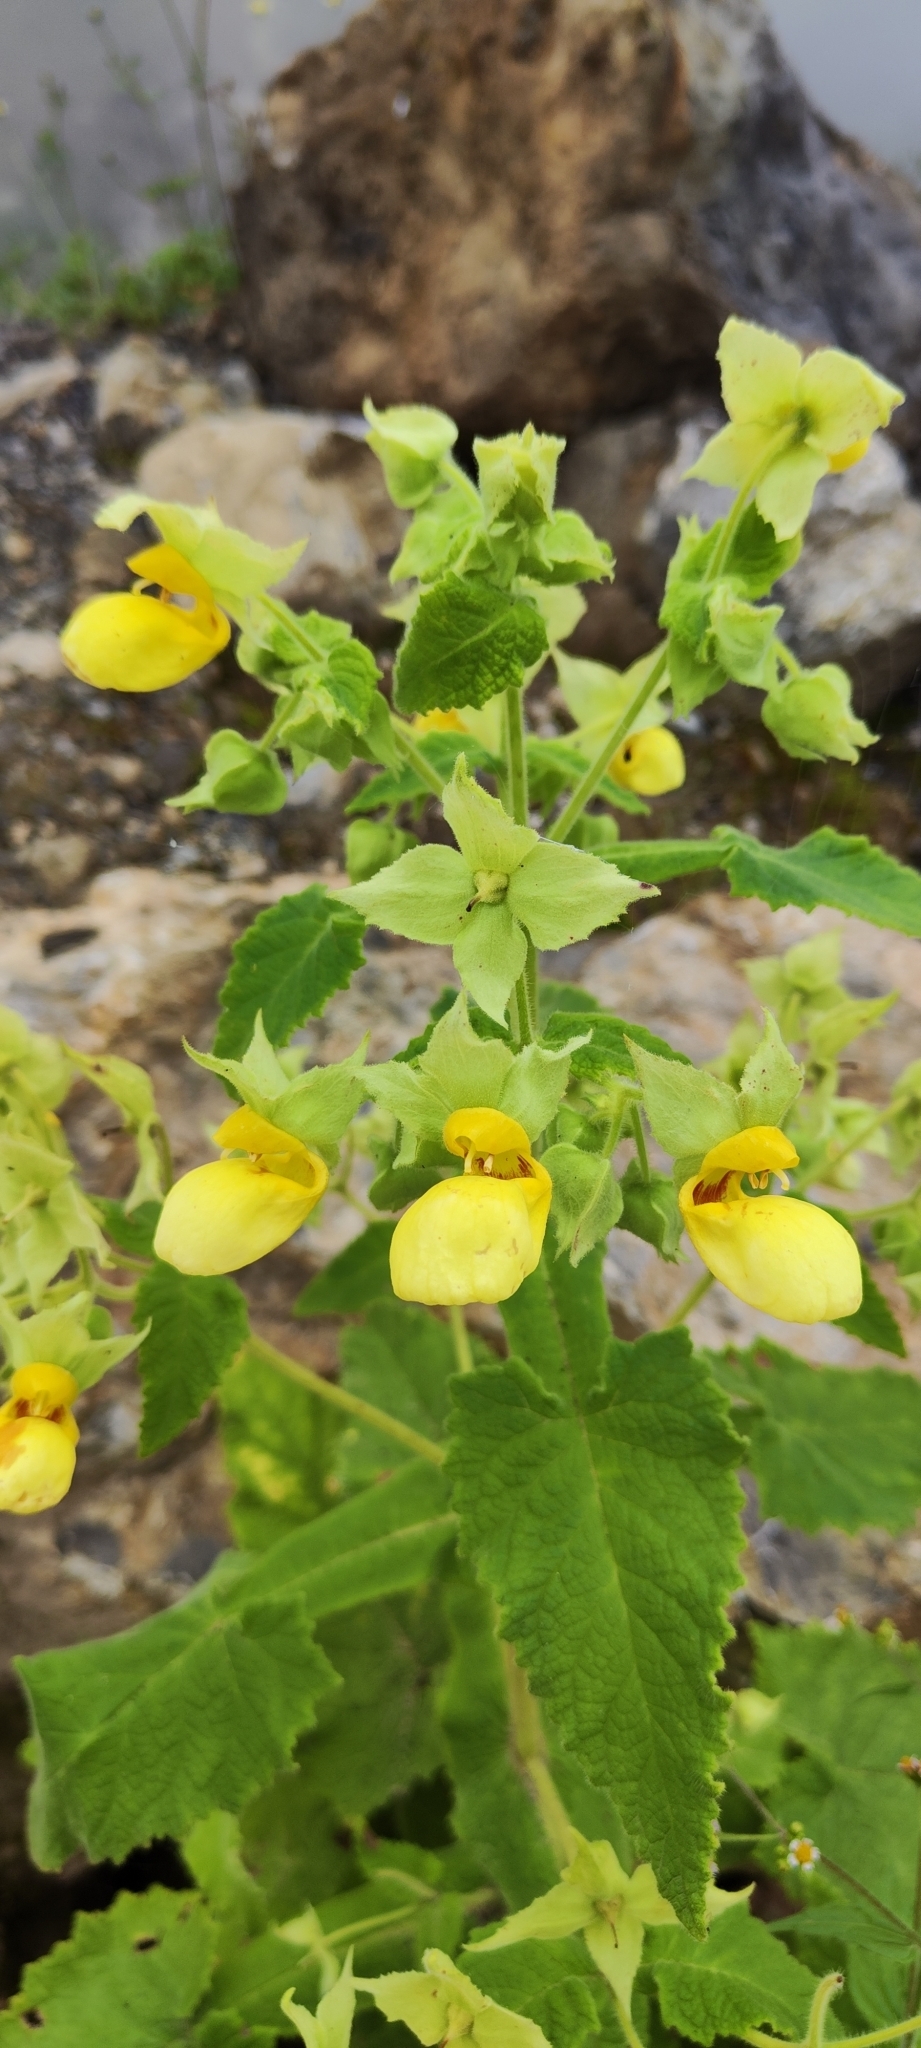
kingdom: Plantae
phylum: Tracheophyta
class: Magnoliopsida
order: Lamiales
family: Calceolariaceae
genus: Calceolaria
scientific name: Calceolaria calycina
